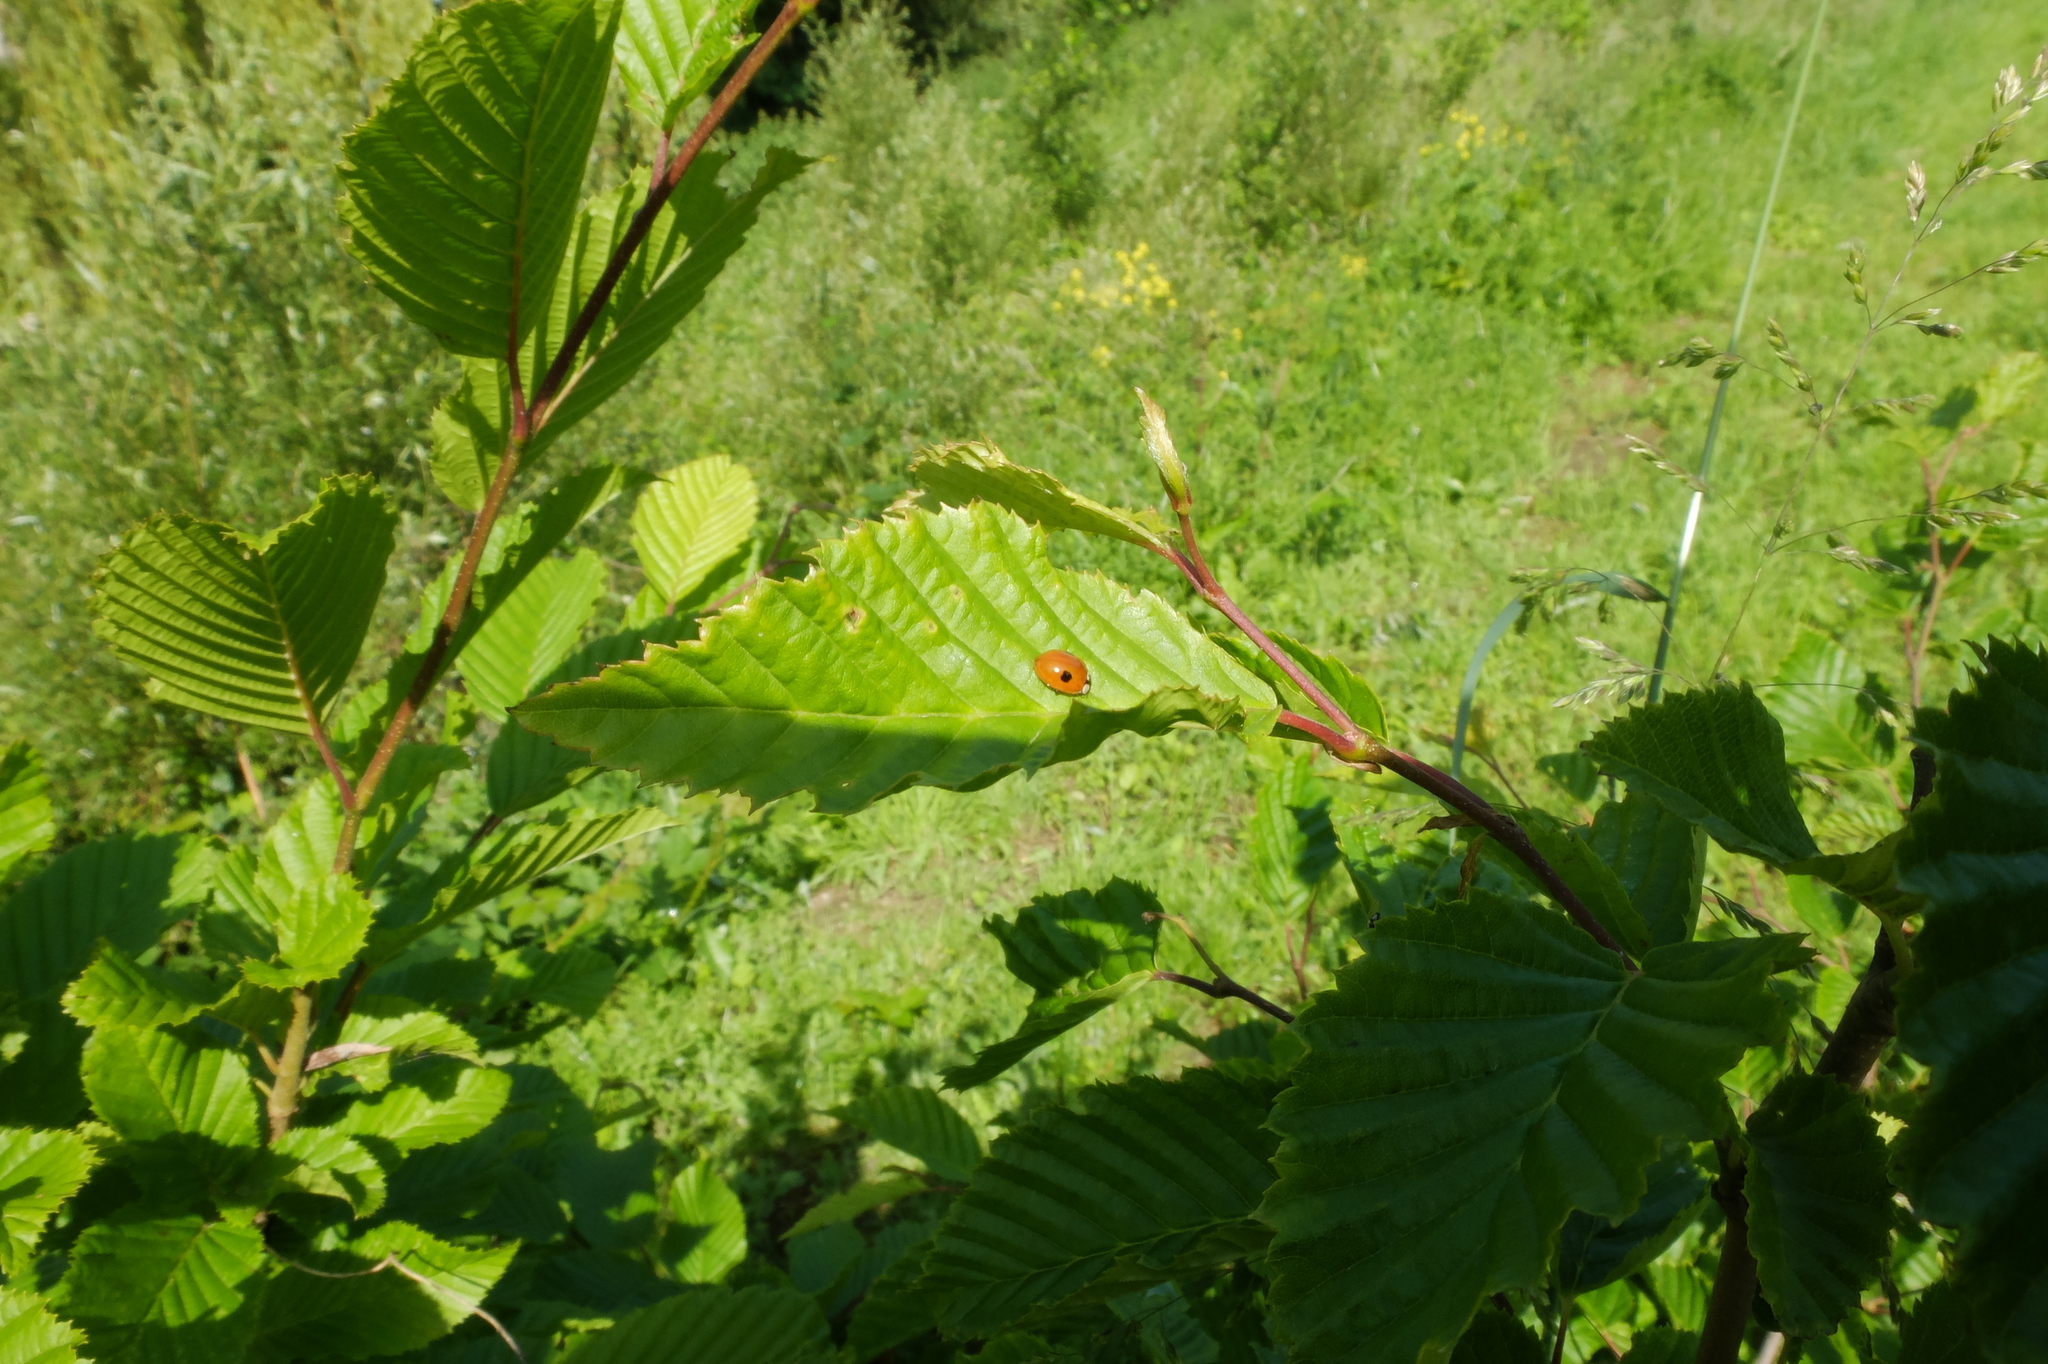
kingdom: Animalia
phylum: Arthropoda
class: Insecta
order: Coleoptera
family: Coccinellidae
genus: Adalia
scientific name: Adalia bipunctata
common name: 2-spot ladybird
